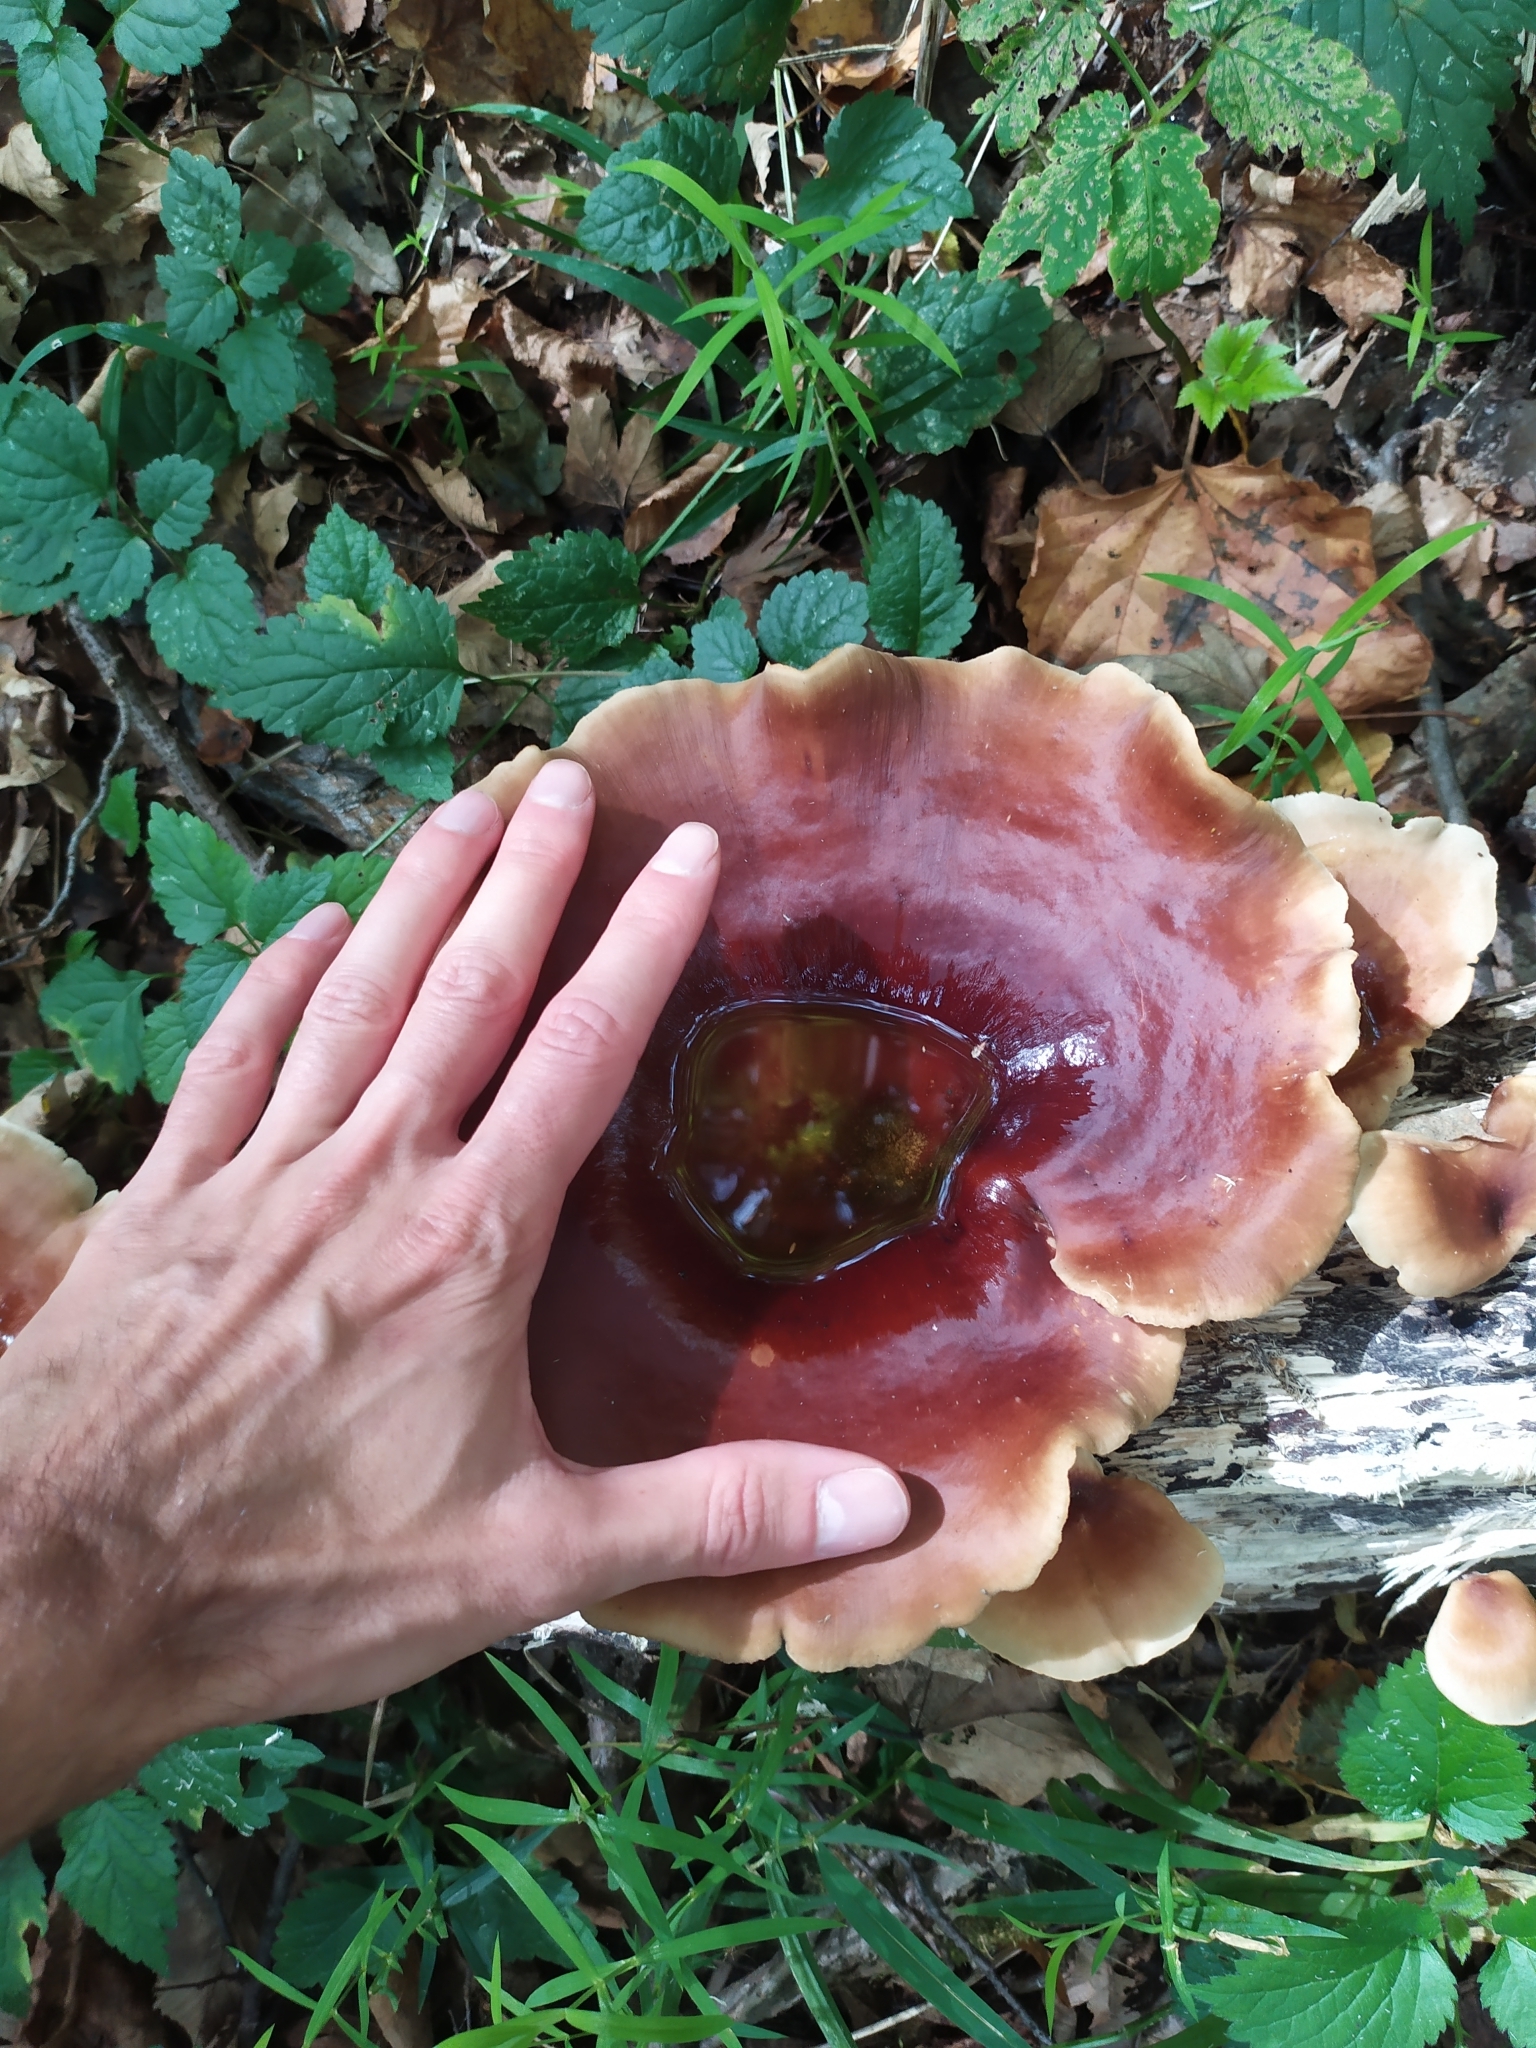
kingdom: Fungi
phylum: Basidiomycota
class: Agaricomycetes
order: Polyporales
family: Polyporaceae
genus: Picipes
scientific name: Picipes badius
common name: Bay polypore
